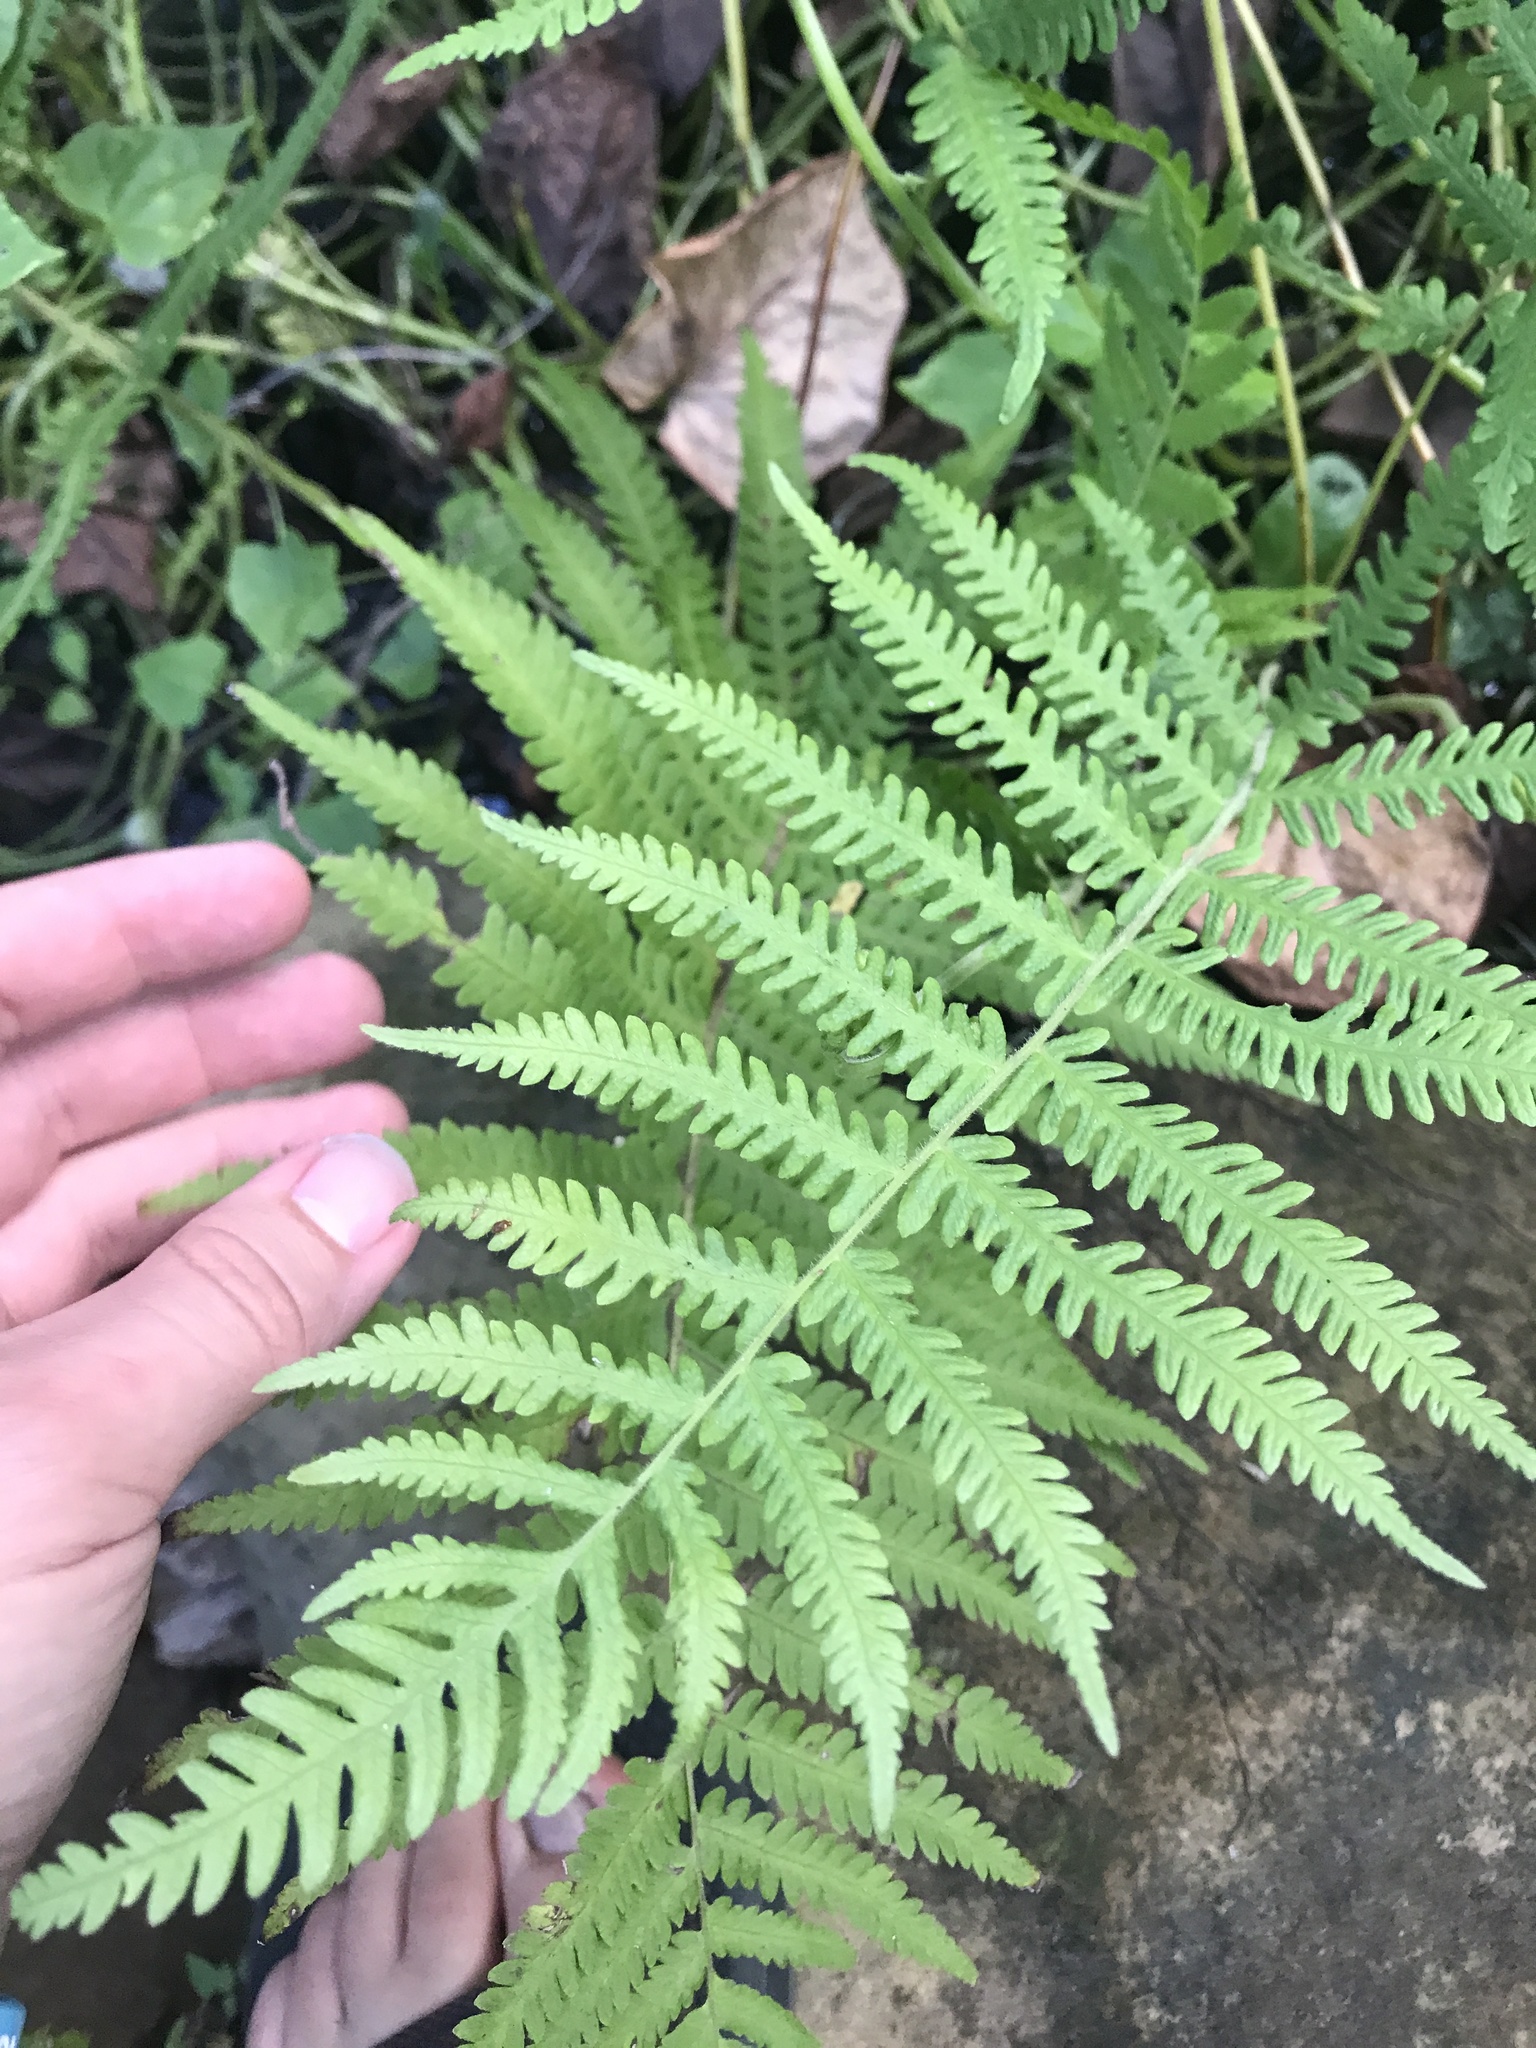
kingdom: Plantae
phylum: Tracheophyta
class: Polypodiopsida
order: Polypodiales
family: Thelypteridaceae
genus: Pelazoneuron
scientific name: Pelazoneuron kunthii
